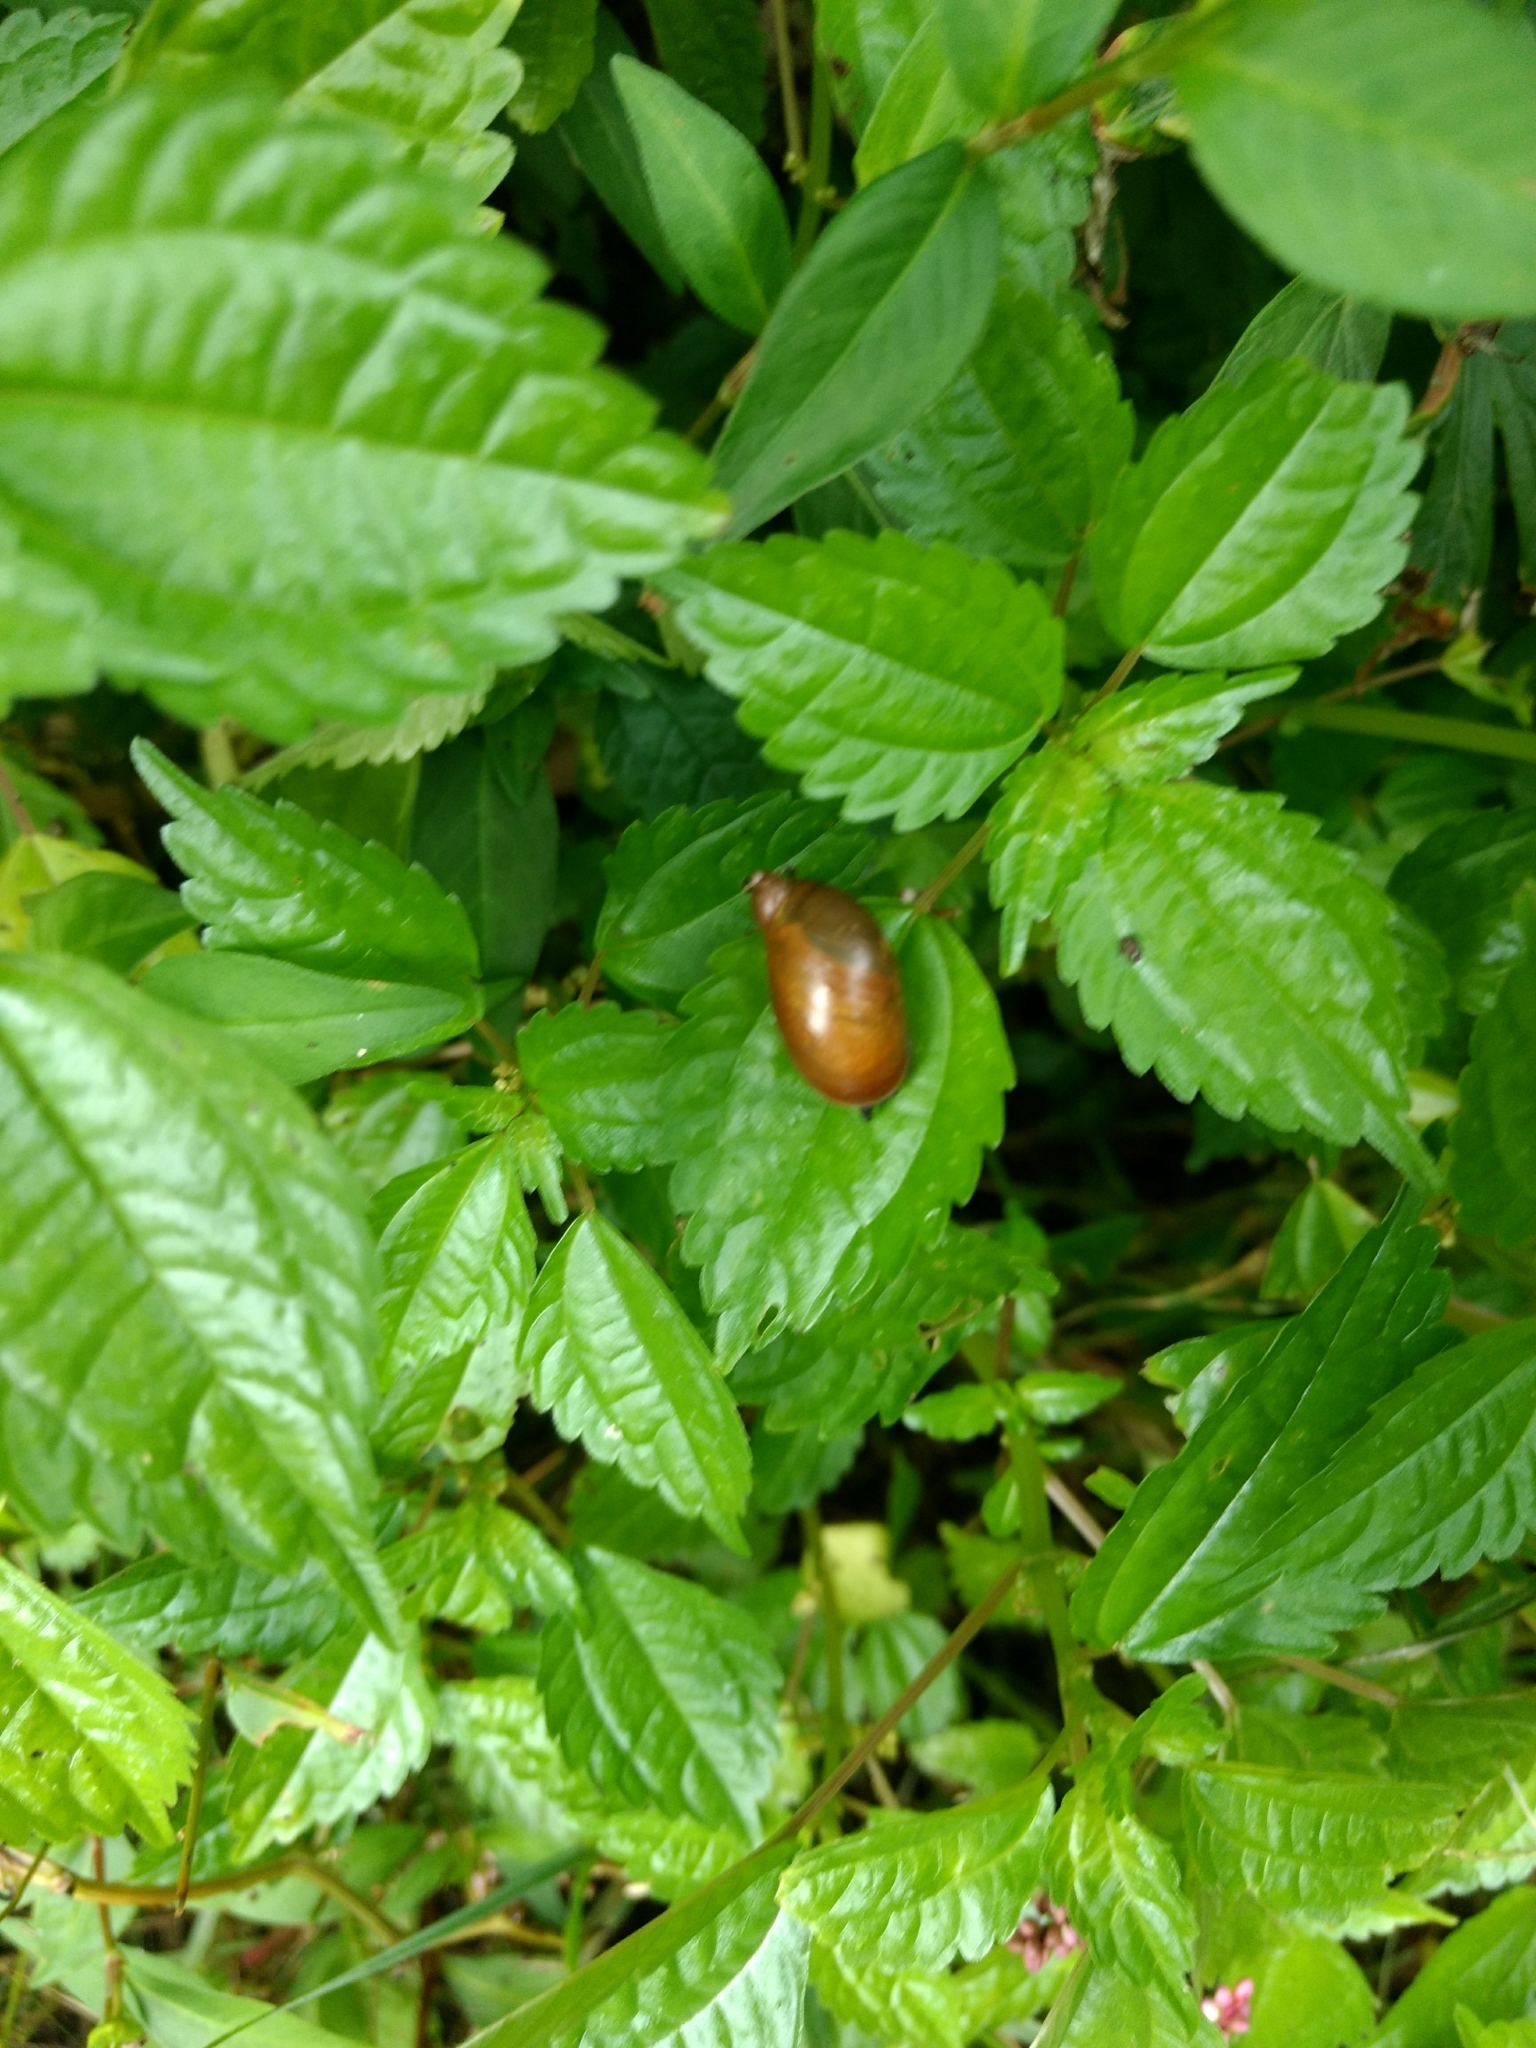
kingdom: Plantae
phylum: Tracheophyta
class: Magnoliopsida
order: Rosales
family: Urticaceae
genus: Pilea
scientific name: Pilea pumila
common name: Clearweed
